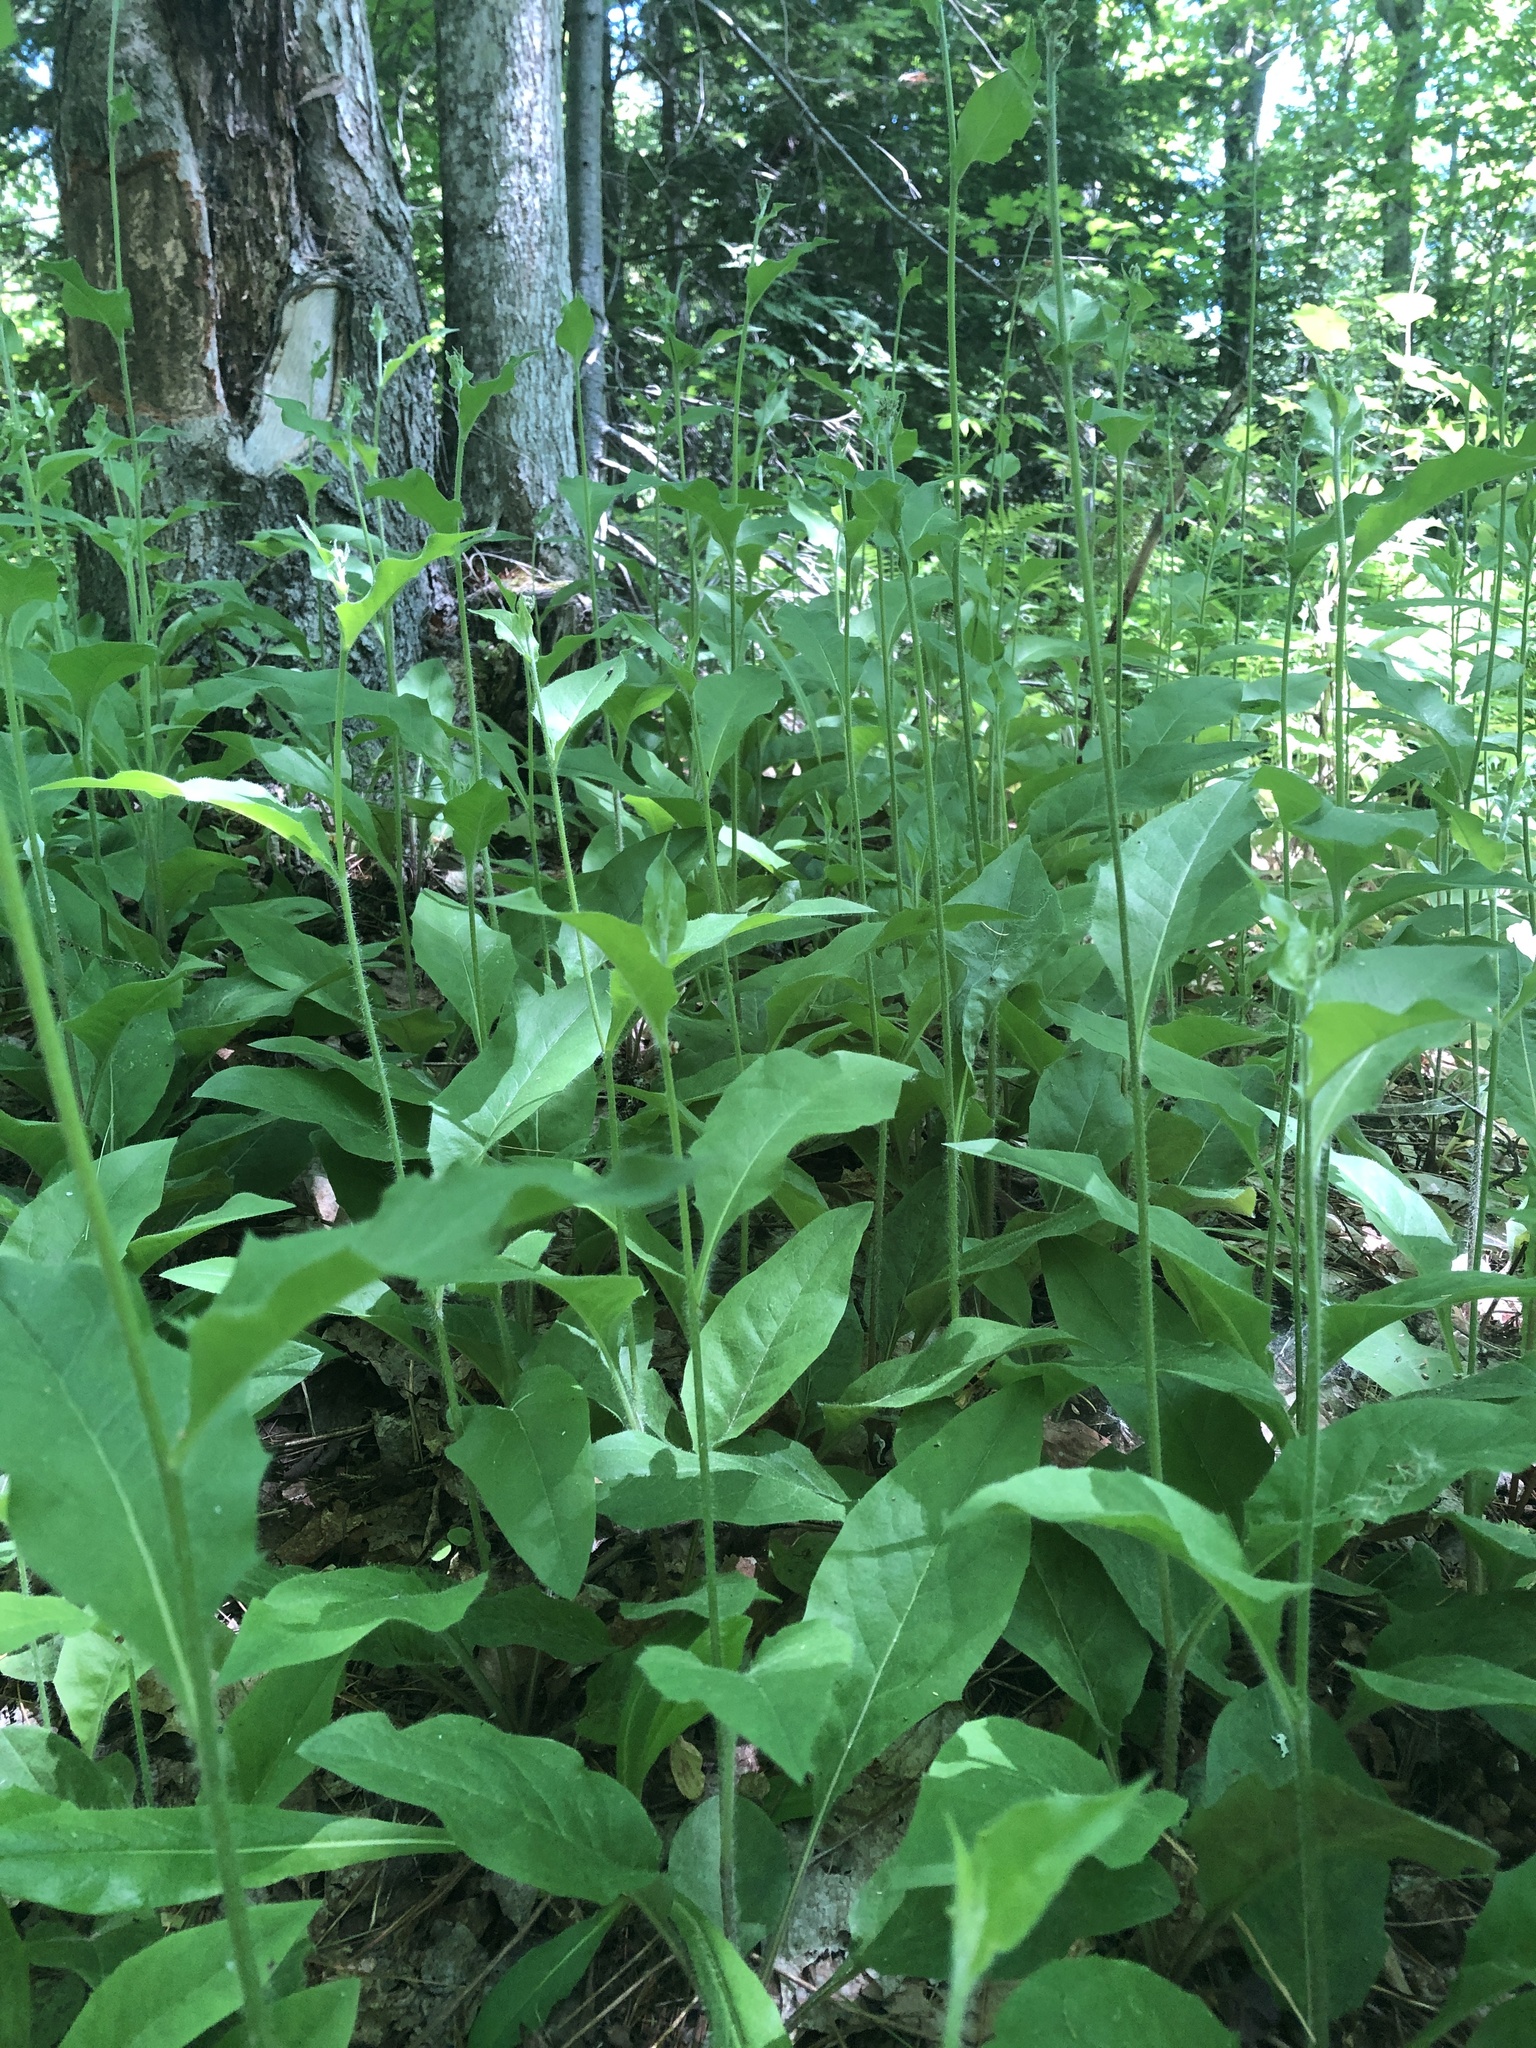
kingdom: Plantae
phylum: Tracheophyta
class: Magnoliopsida
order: Asterales
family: Asteraceae
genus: Hieracium
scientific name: Hieracium lachenalii
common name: Common hawkweed
